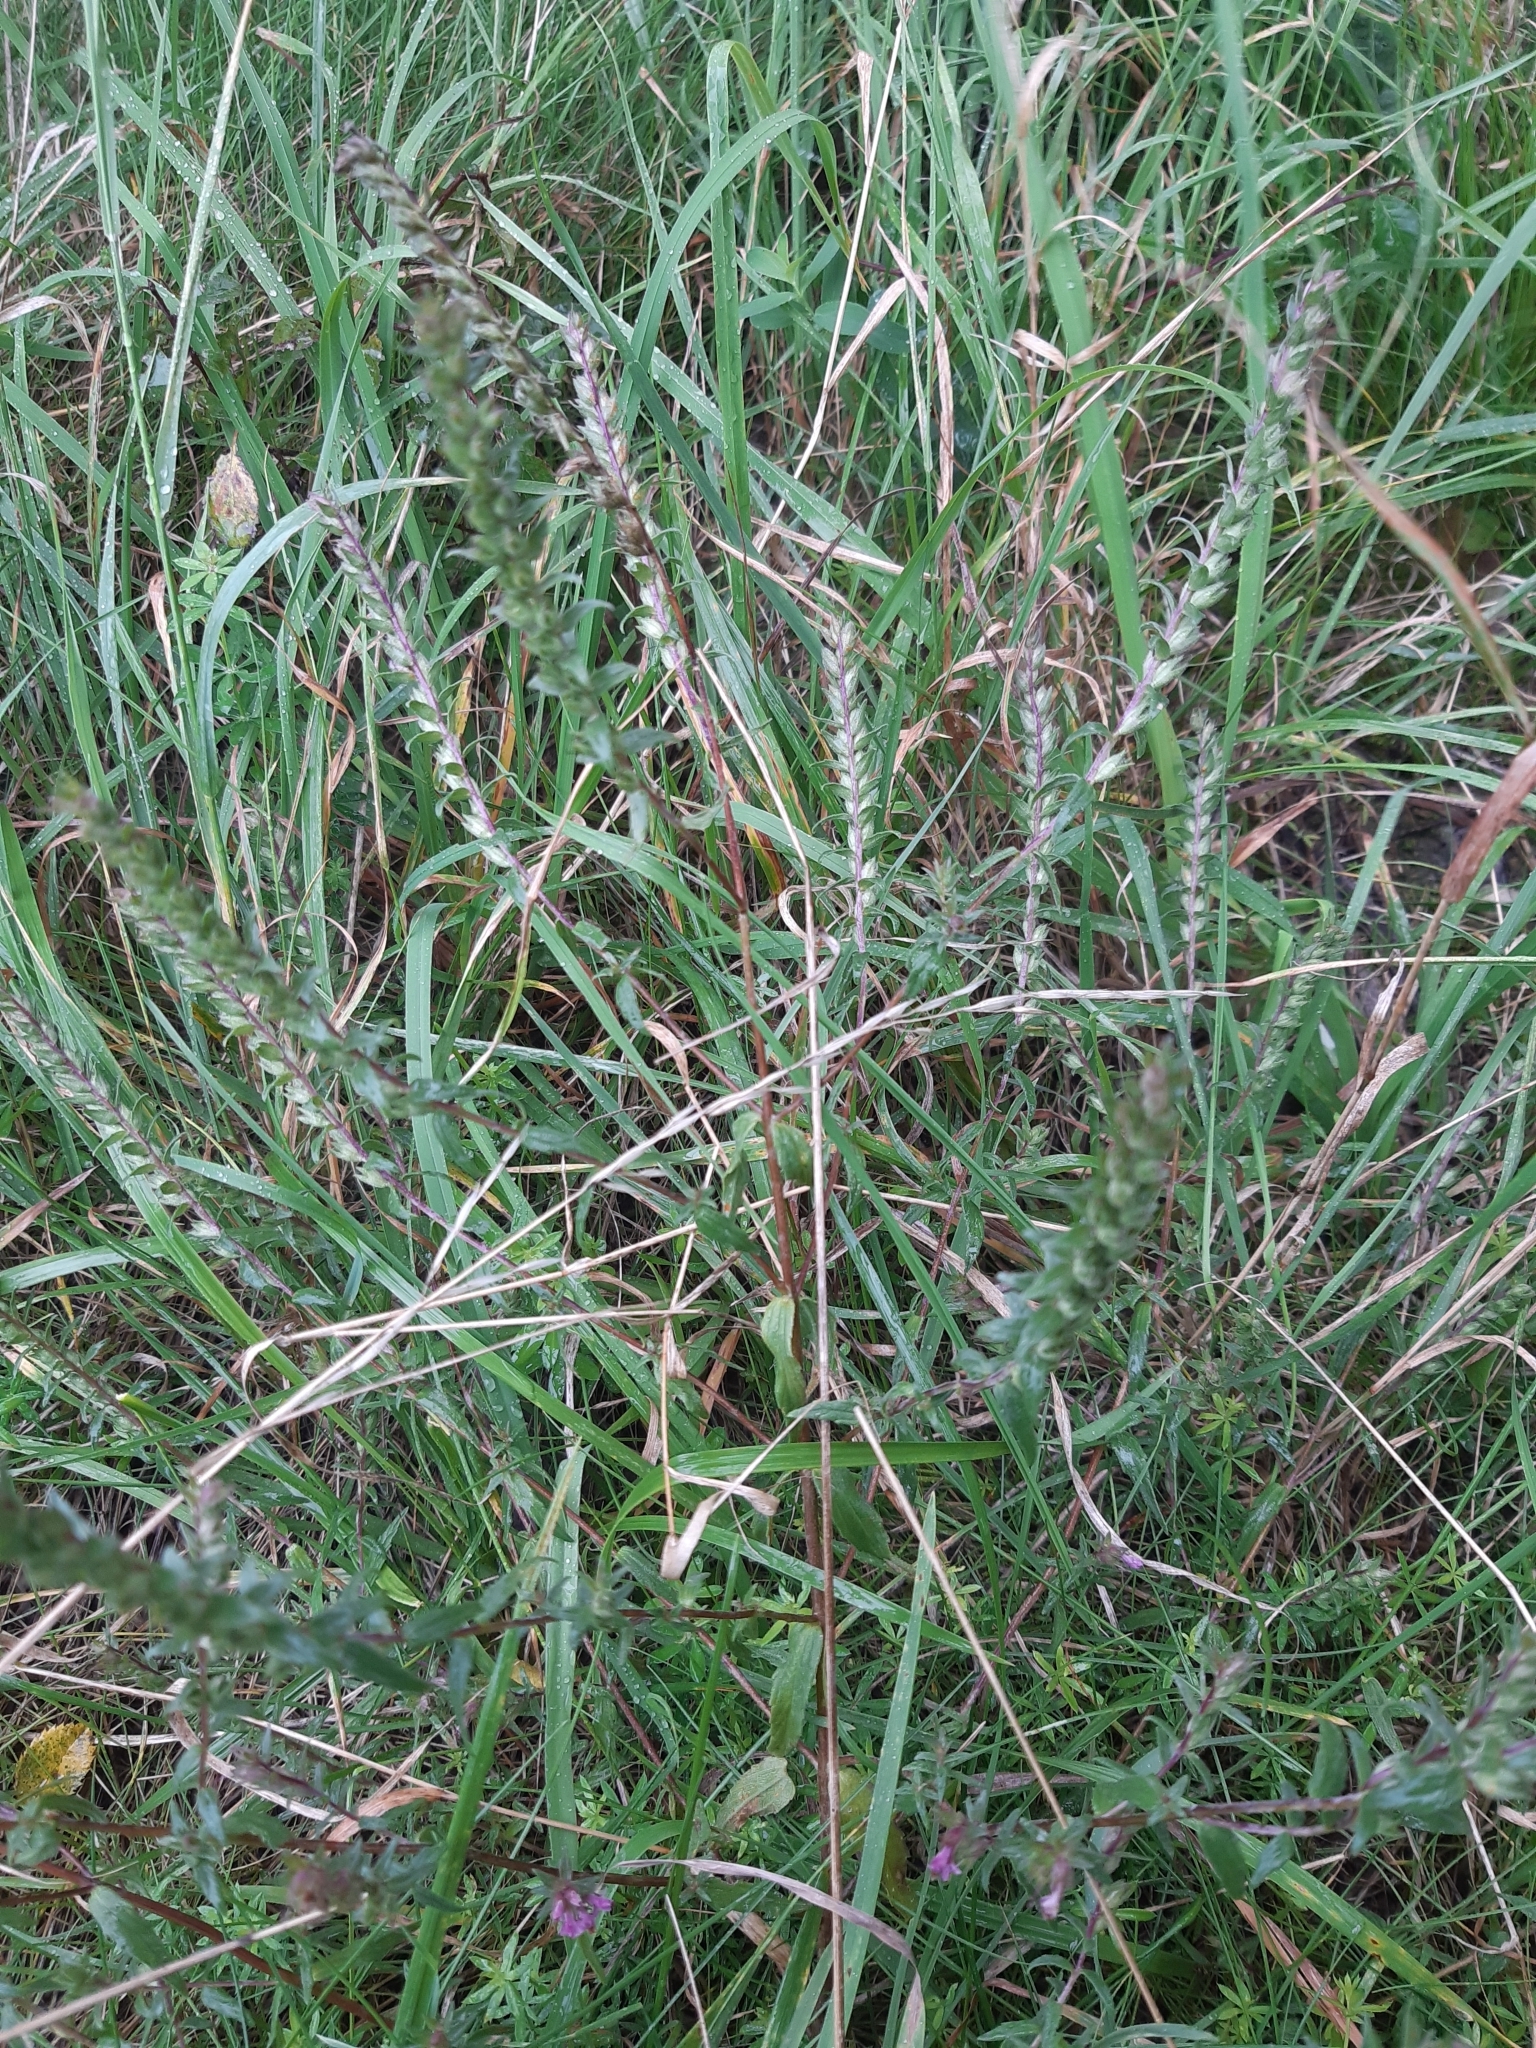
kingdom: Plantae
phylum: Tracheophyta
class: Magnoliopsida
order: Lamiales
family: Orobanchaceae
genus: Odontites
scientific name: Odontites vulgaris
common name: Broomrape
